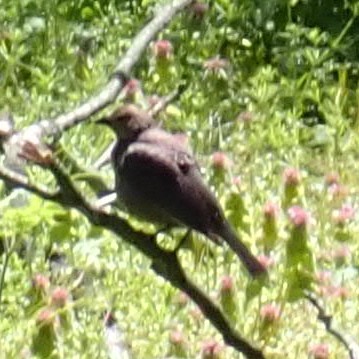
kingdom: Animalia
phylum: Chordata
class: Aves
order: Passeriformes
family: Icteridae
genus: Molothrus
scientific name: Molothrus ater
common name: Brown-headed cowbird
